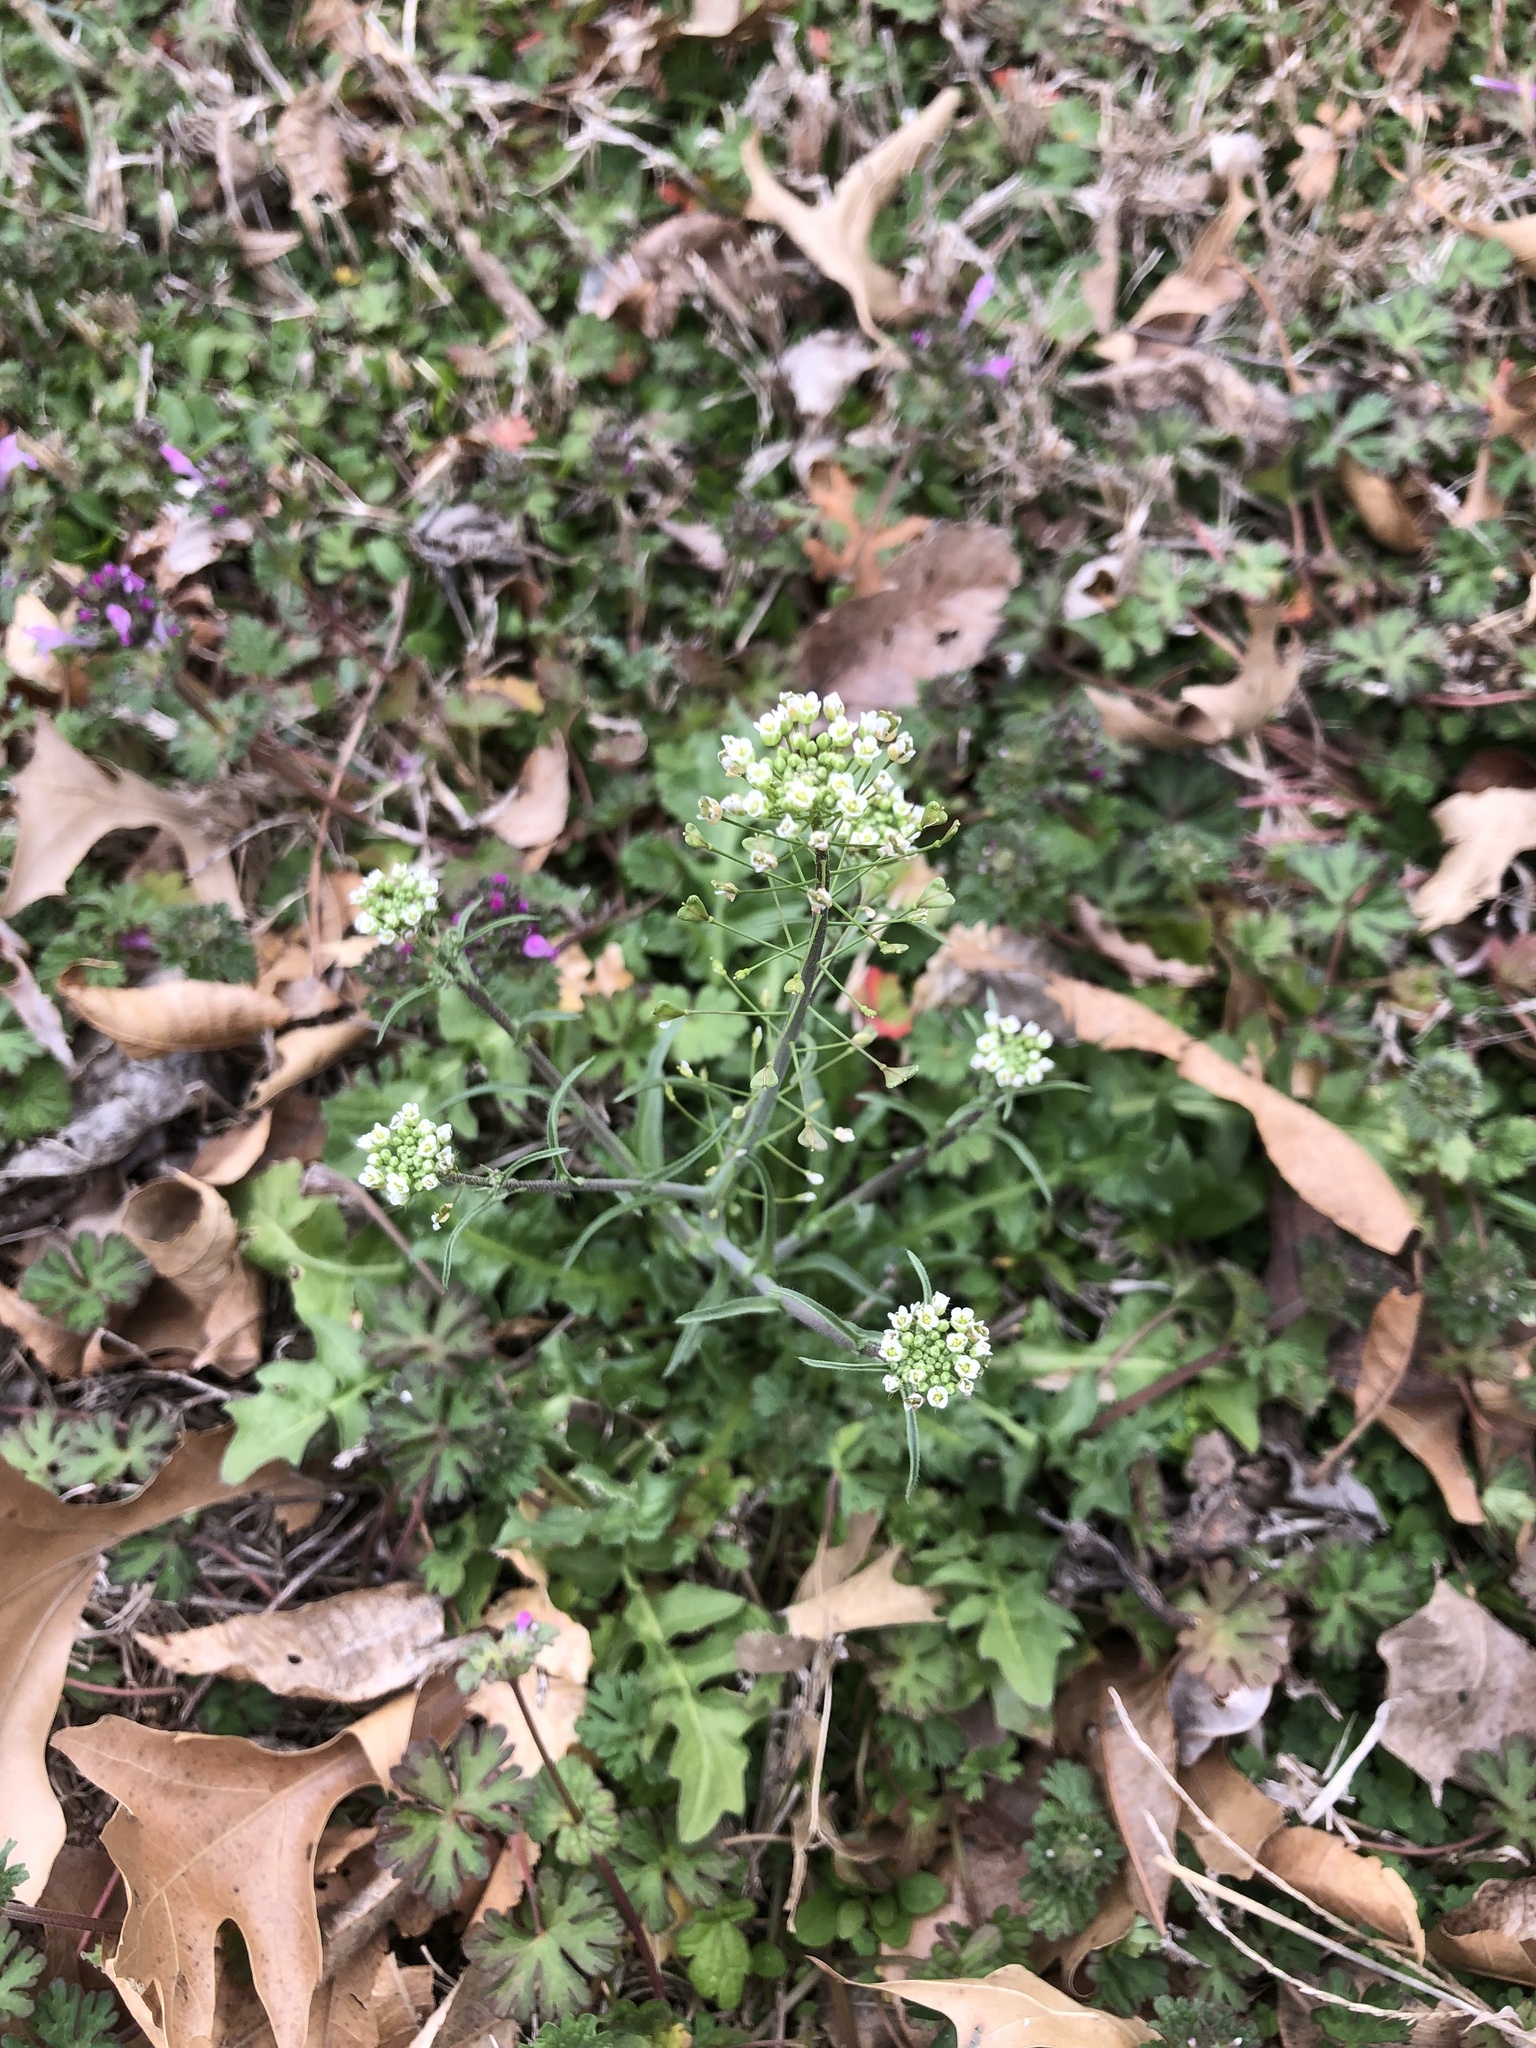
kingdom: Plantae
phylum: Tracheophyta
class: Magnoliopsida
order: Brassicales
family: Brassicaceae
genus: Capsella
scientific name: Capsella bursa-pastoris
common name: Shepherd's purse
